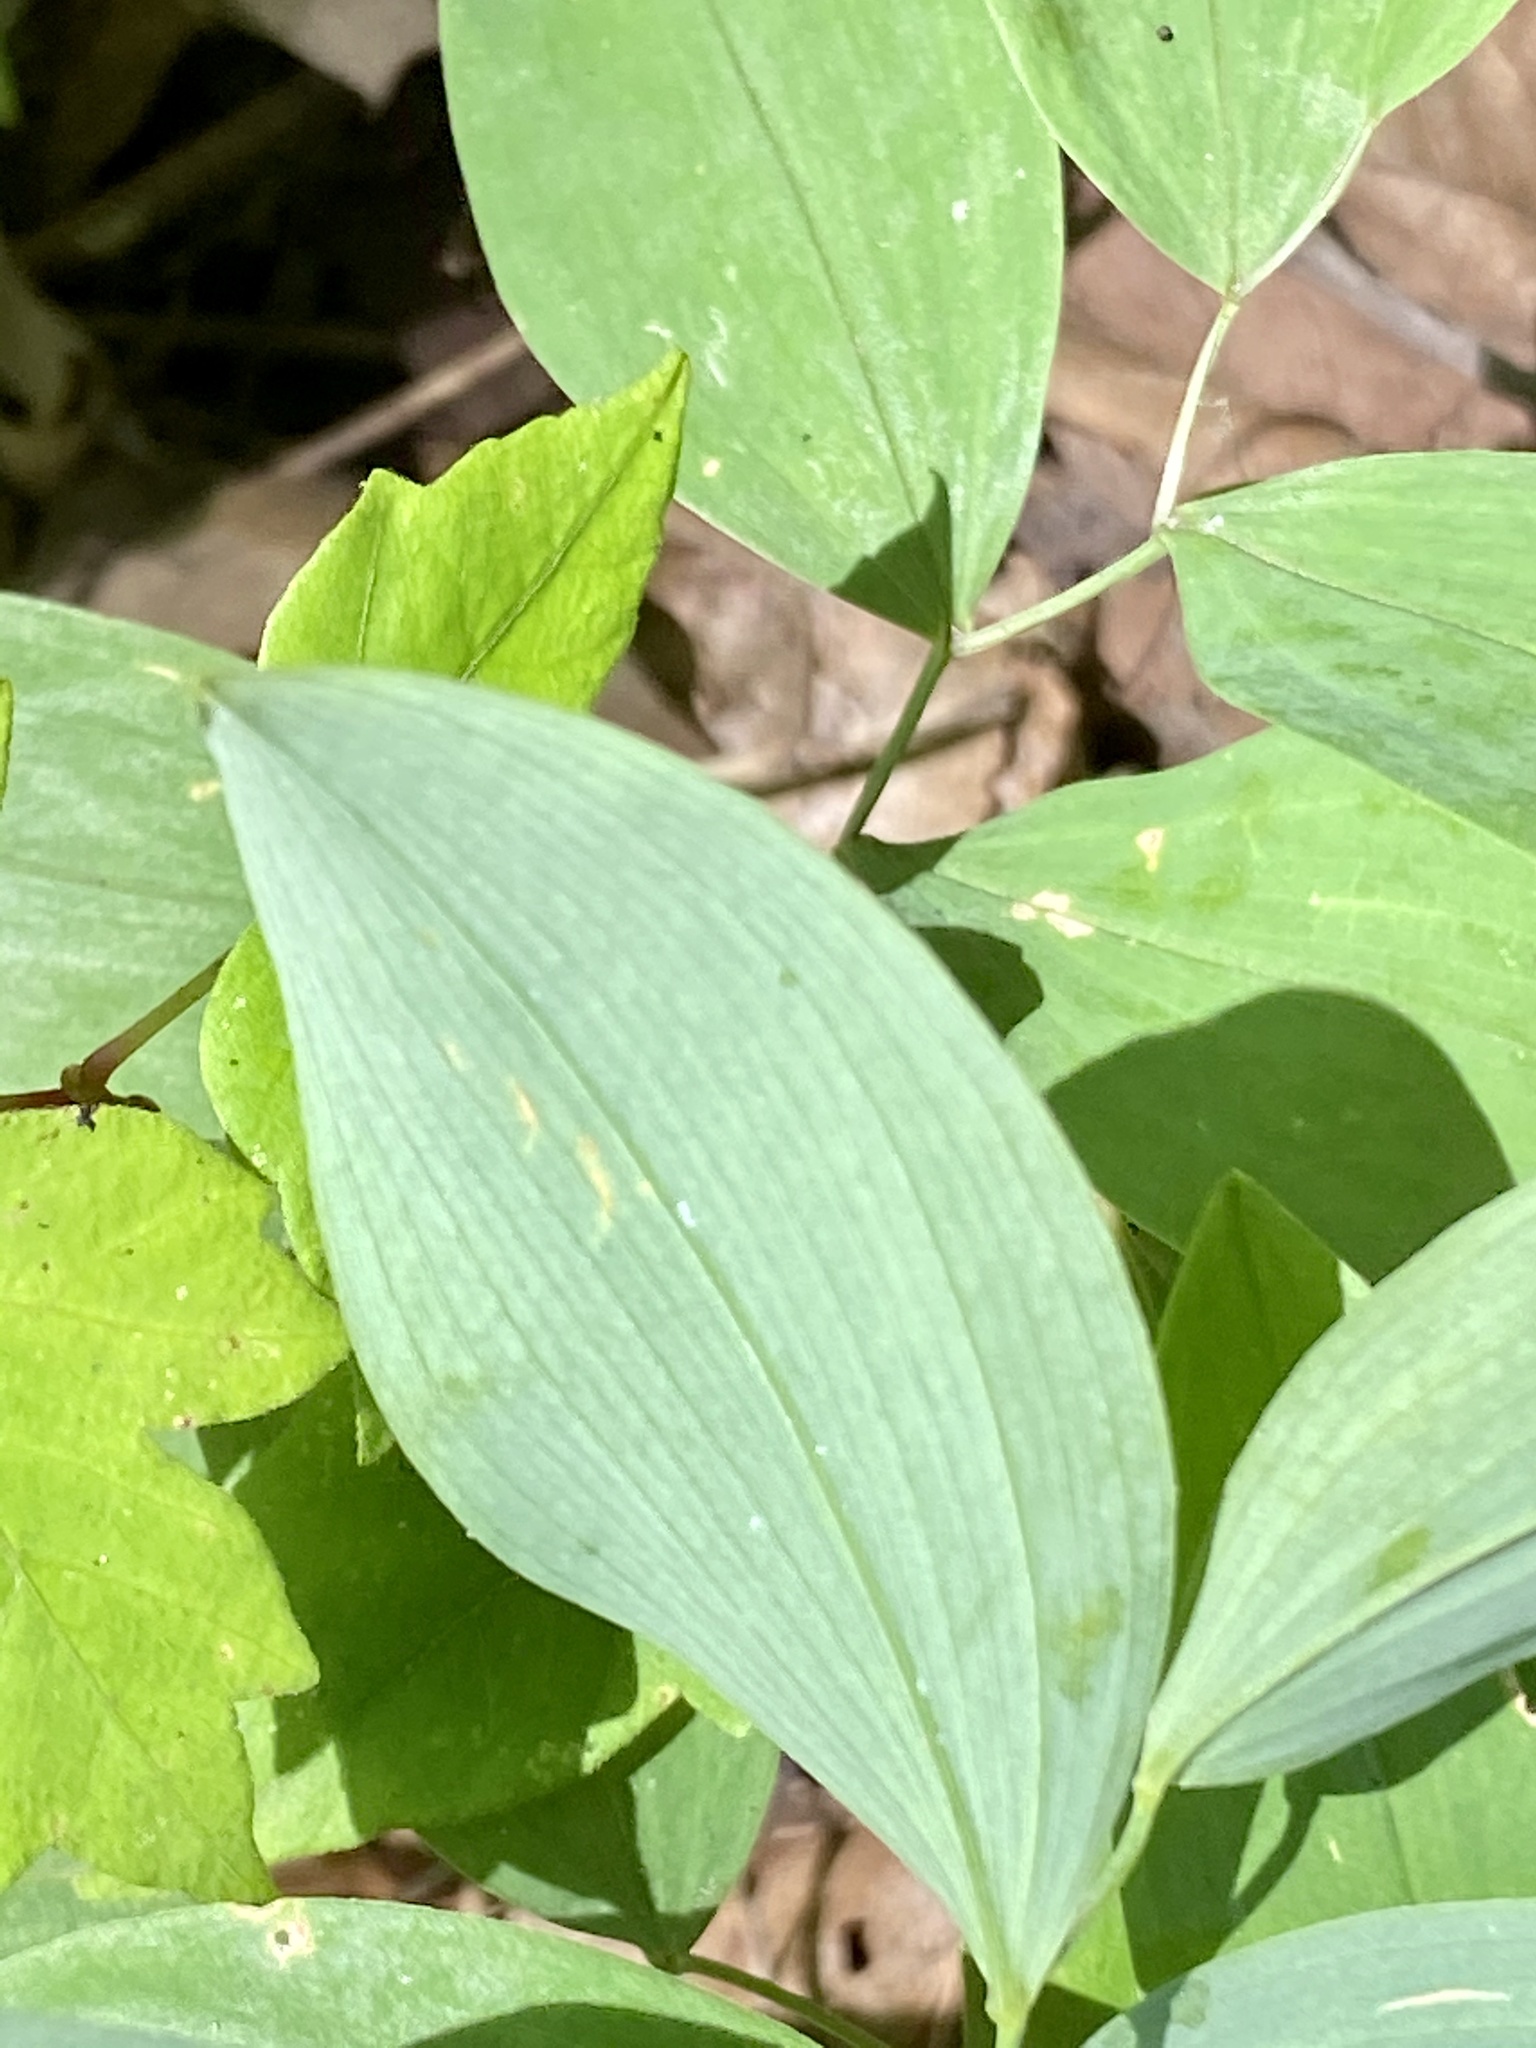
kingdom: Plantae
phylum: Tracheophyta
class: Liliopsida
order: Liliales
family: Colchicaceae
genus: Uvularia
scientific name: Uvularia sessilifolia
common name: Straw-lily
